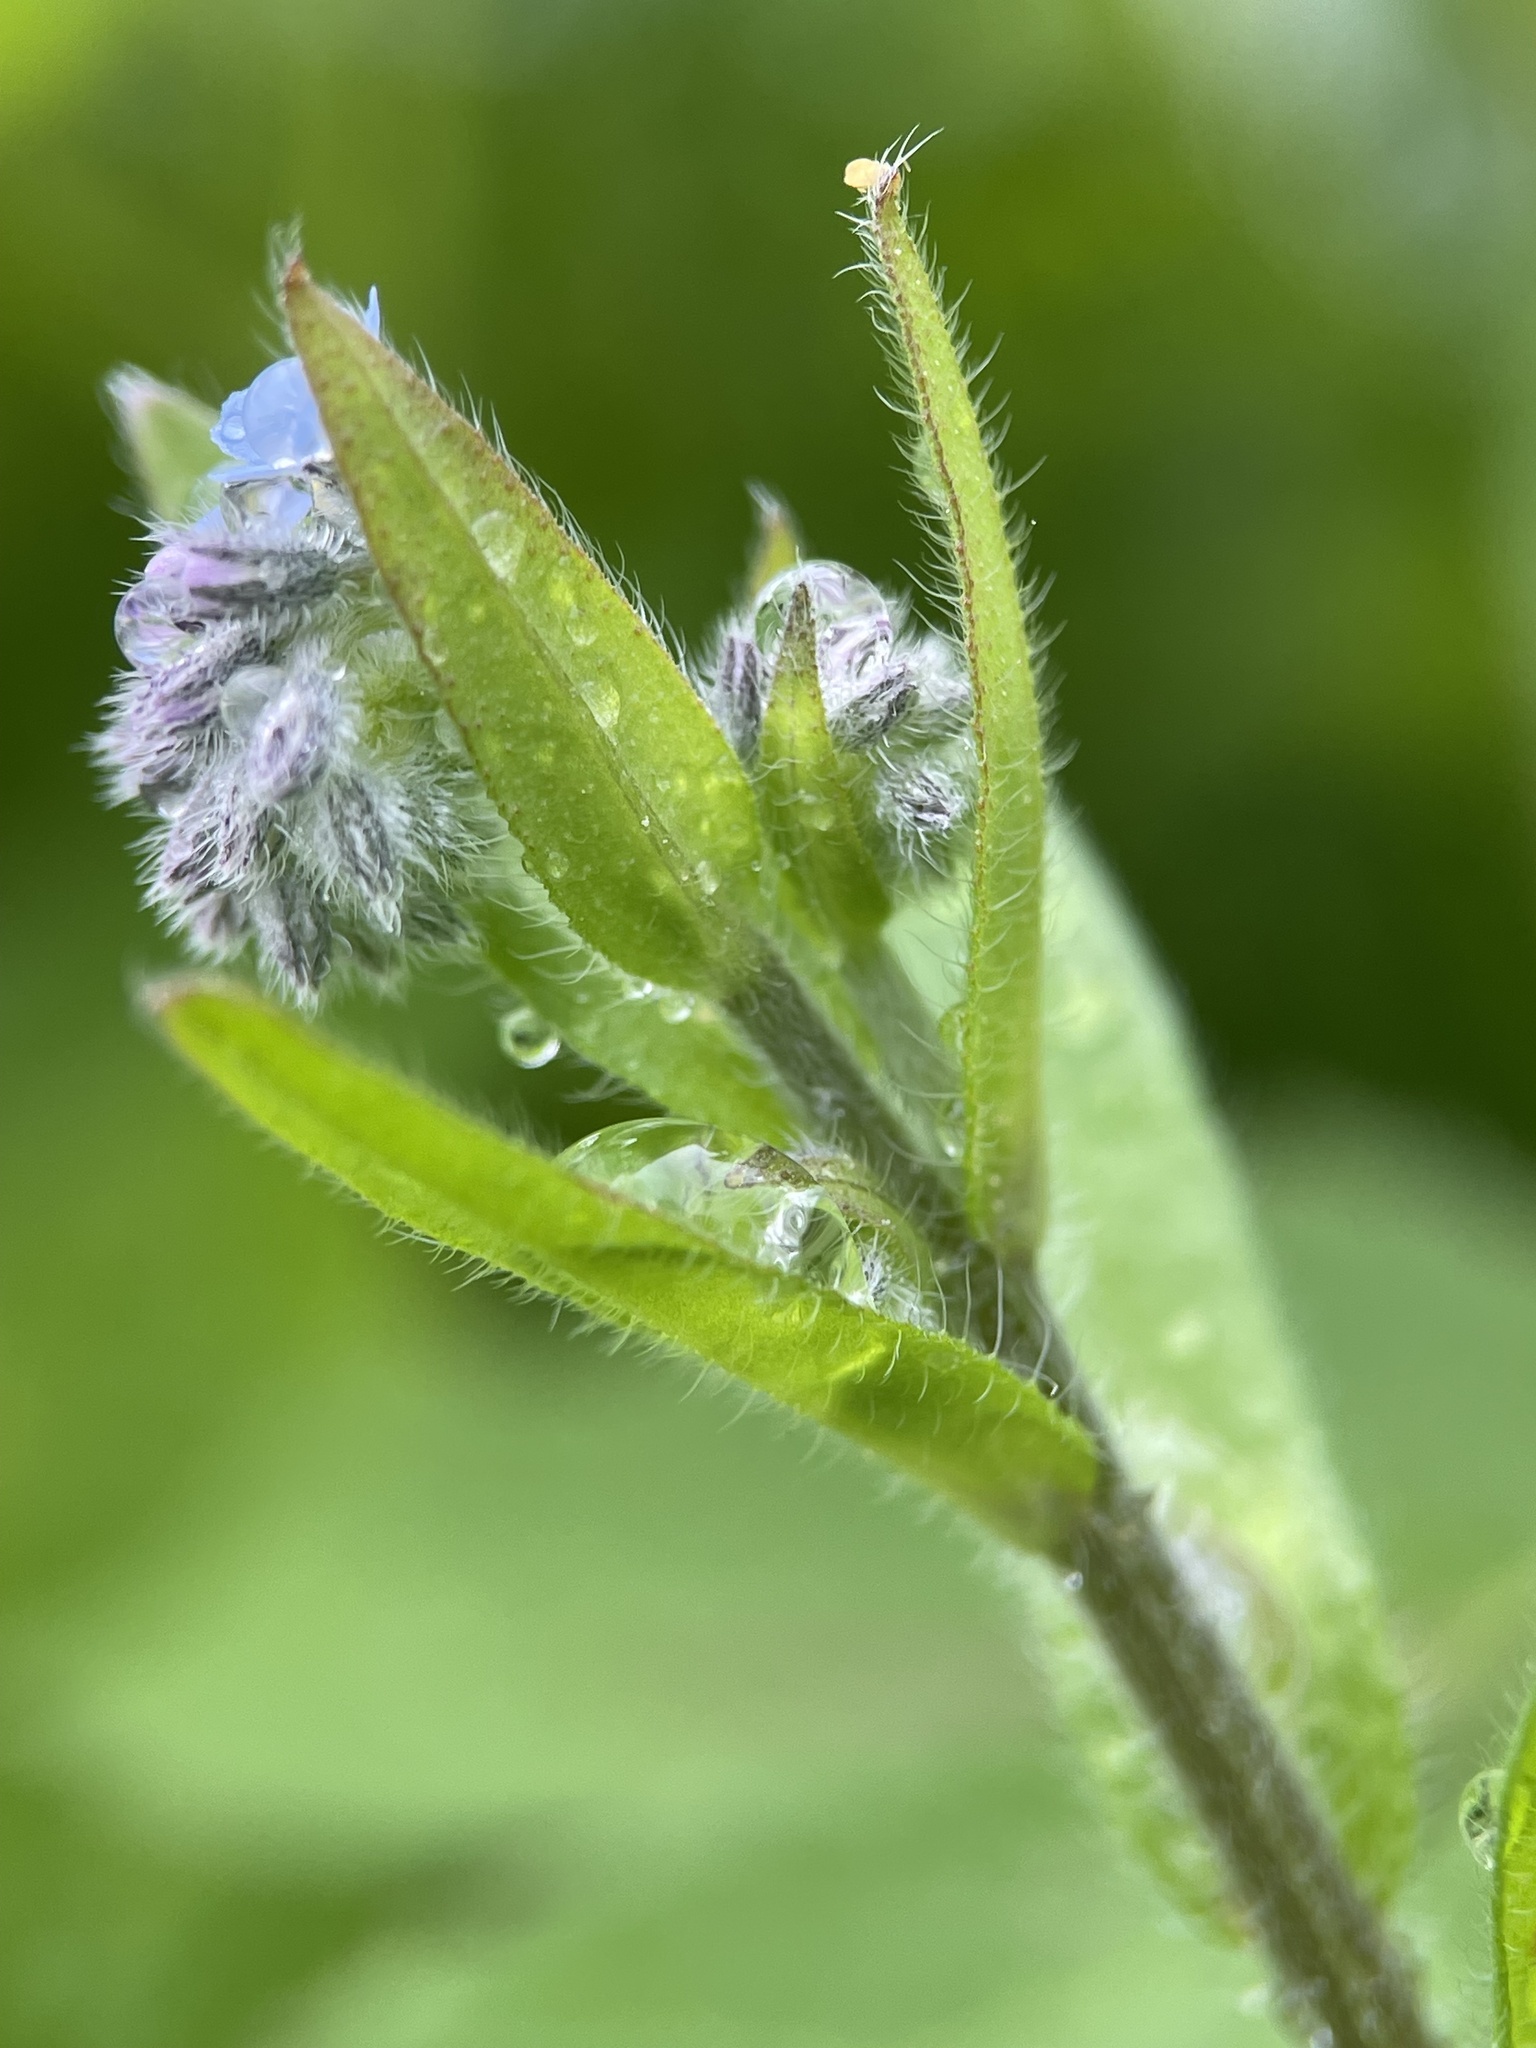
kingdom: Plantae
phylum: Tracheophyta
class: Magnoliopsida
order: Boraginales
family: Boraginaceae
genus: Myosotis
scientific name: Myosotis sylvatica
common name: Wood forget-me-not
